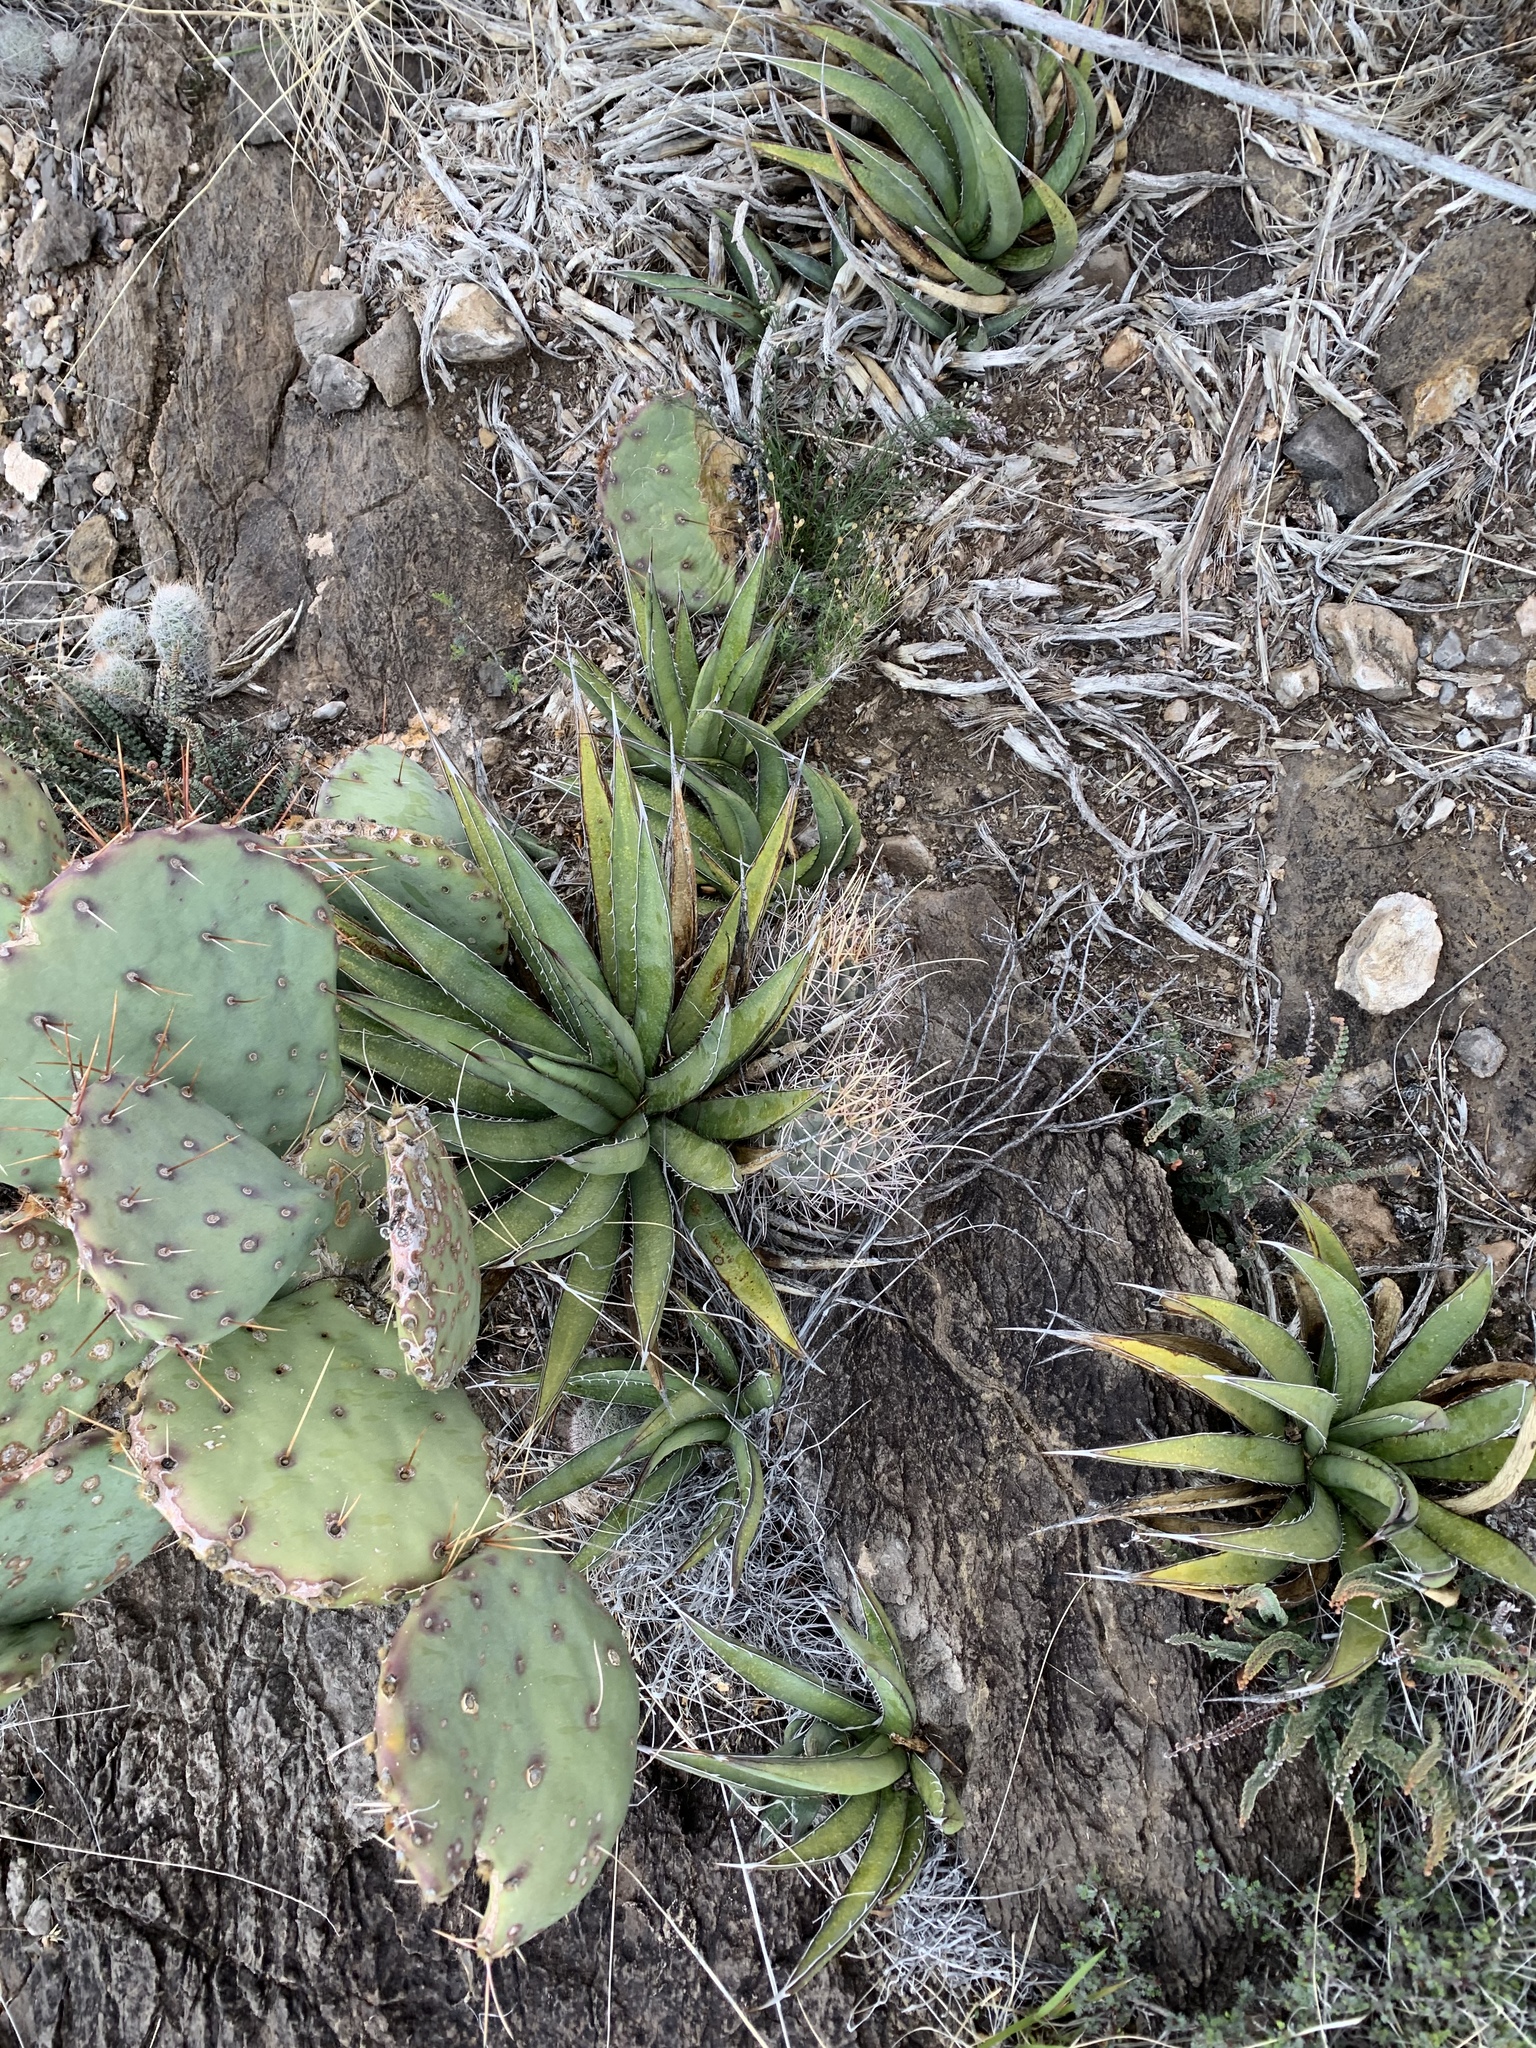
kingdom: Plantae
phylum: Tracheophyta
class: Liliopsida
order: Asparagales
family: Asparagaceae
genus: Agave
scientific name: Agave lechuguilla
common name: Lecheguilla agave
